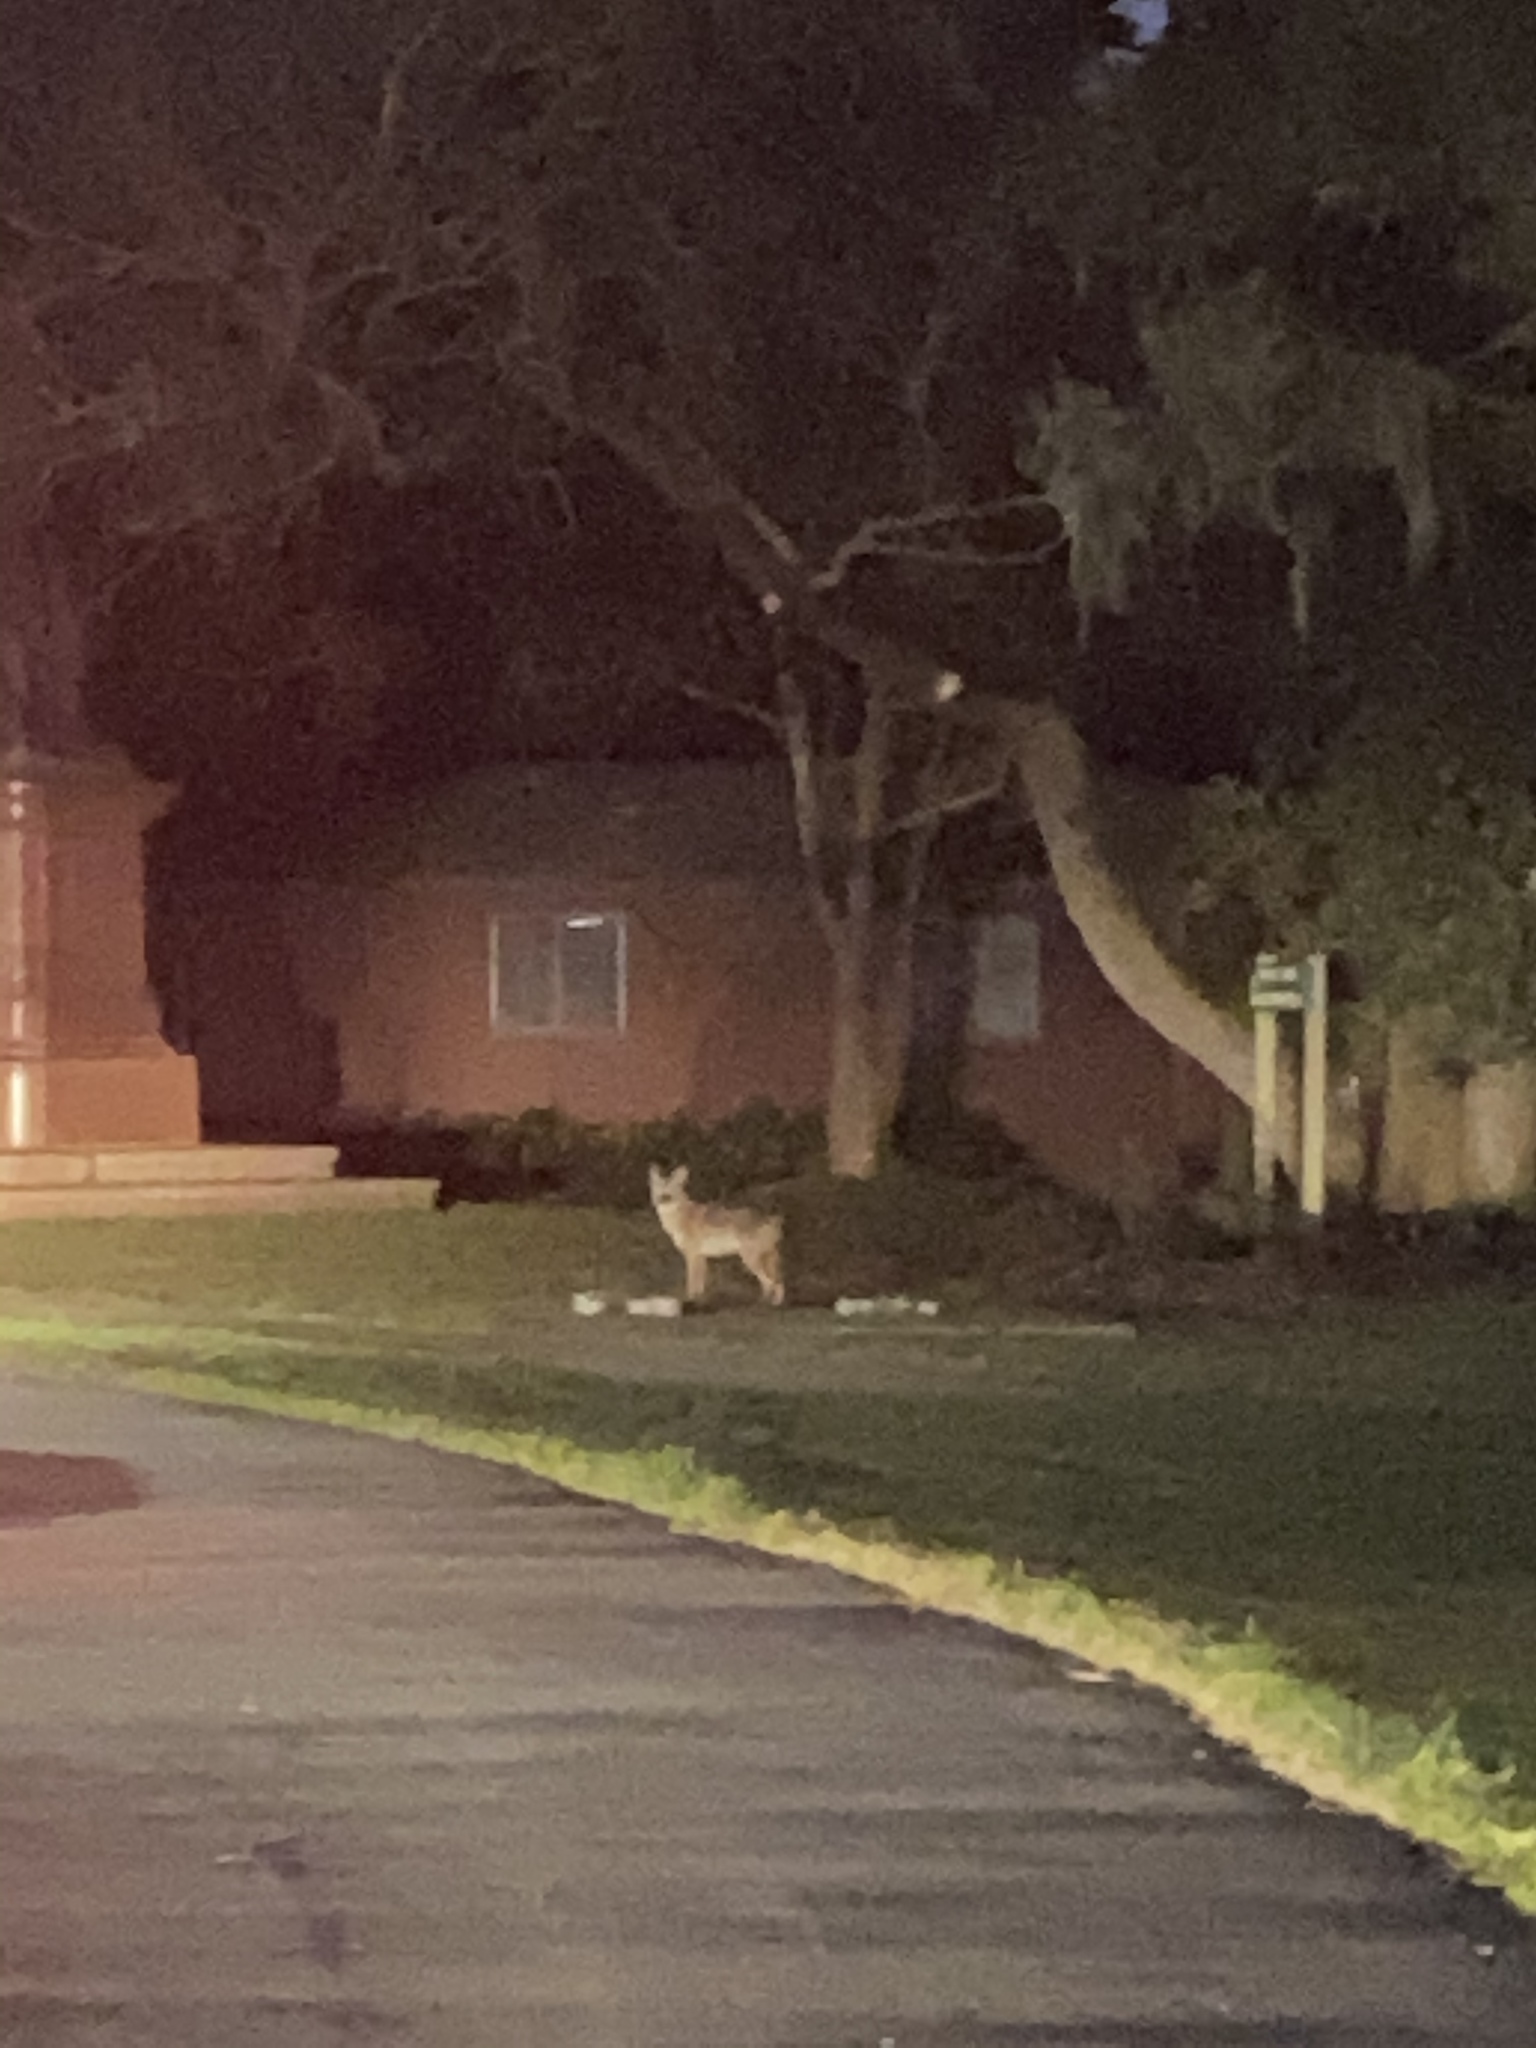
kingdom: Animalia
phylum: Chordata
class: Mammalia
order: Carnivora
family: Canidae
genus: Canis
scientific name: Canis latrans
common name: Coyote
